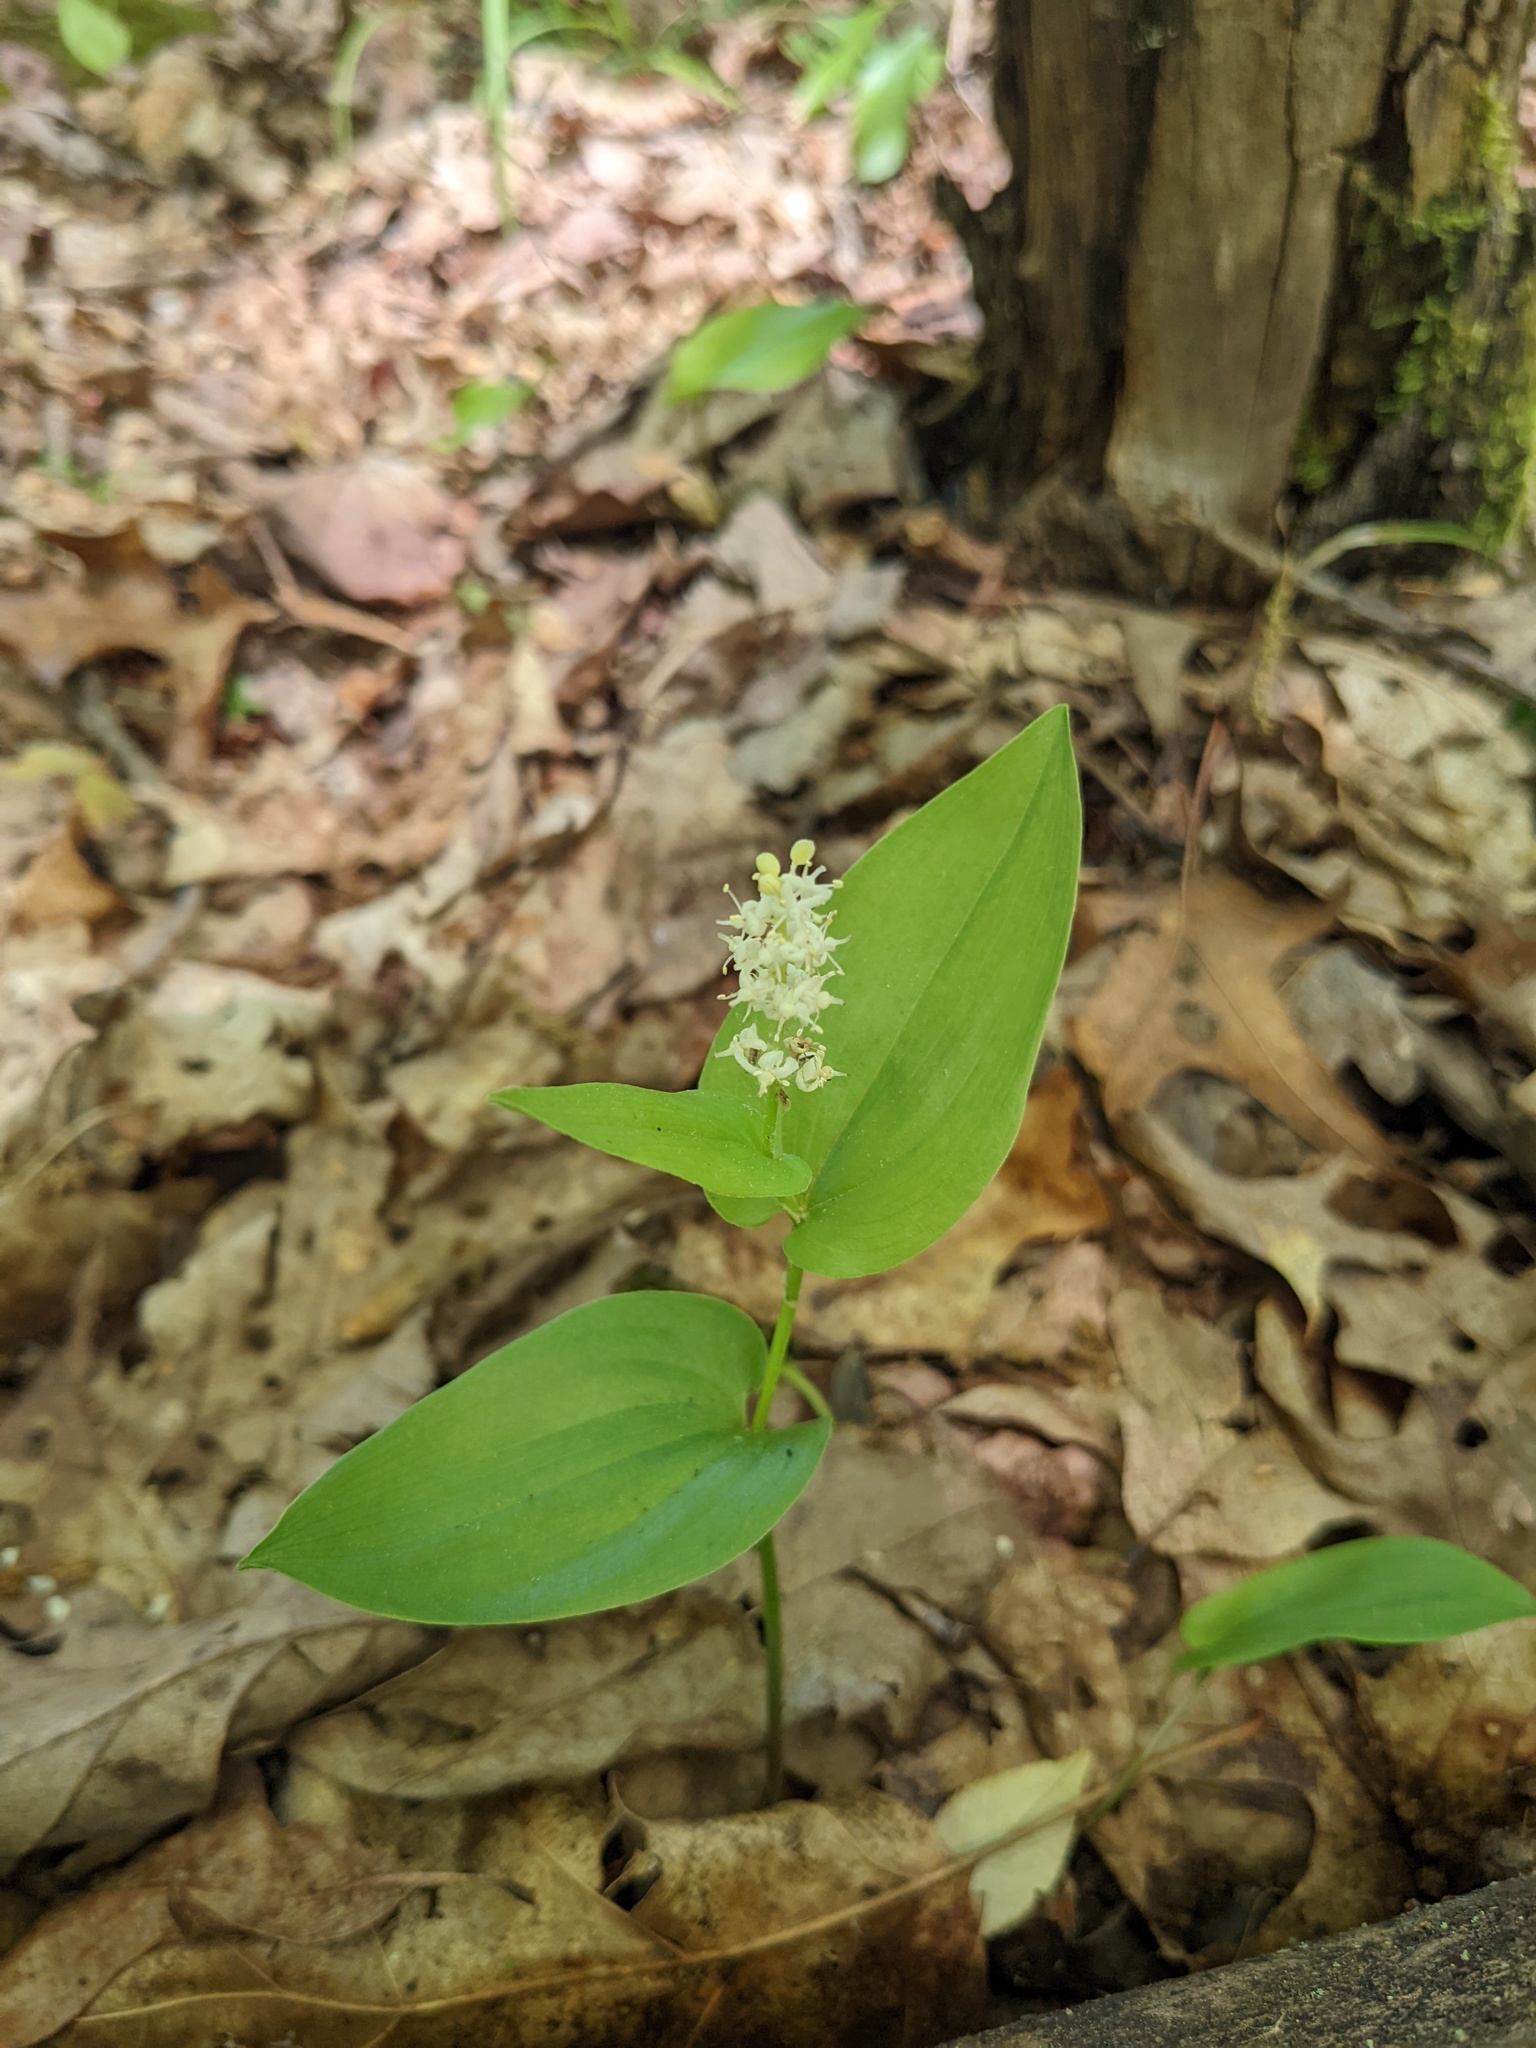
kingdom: Plantae
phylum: Tracheophyta
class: Liliopsida
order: Asparagales
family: Asparagaceae
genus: Maianthemum
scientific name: Maianthemum canadense
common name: False lily-of-the-valley
